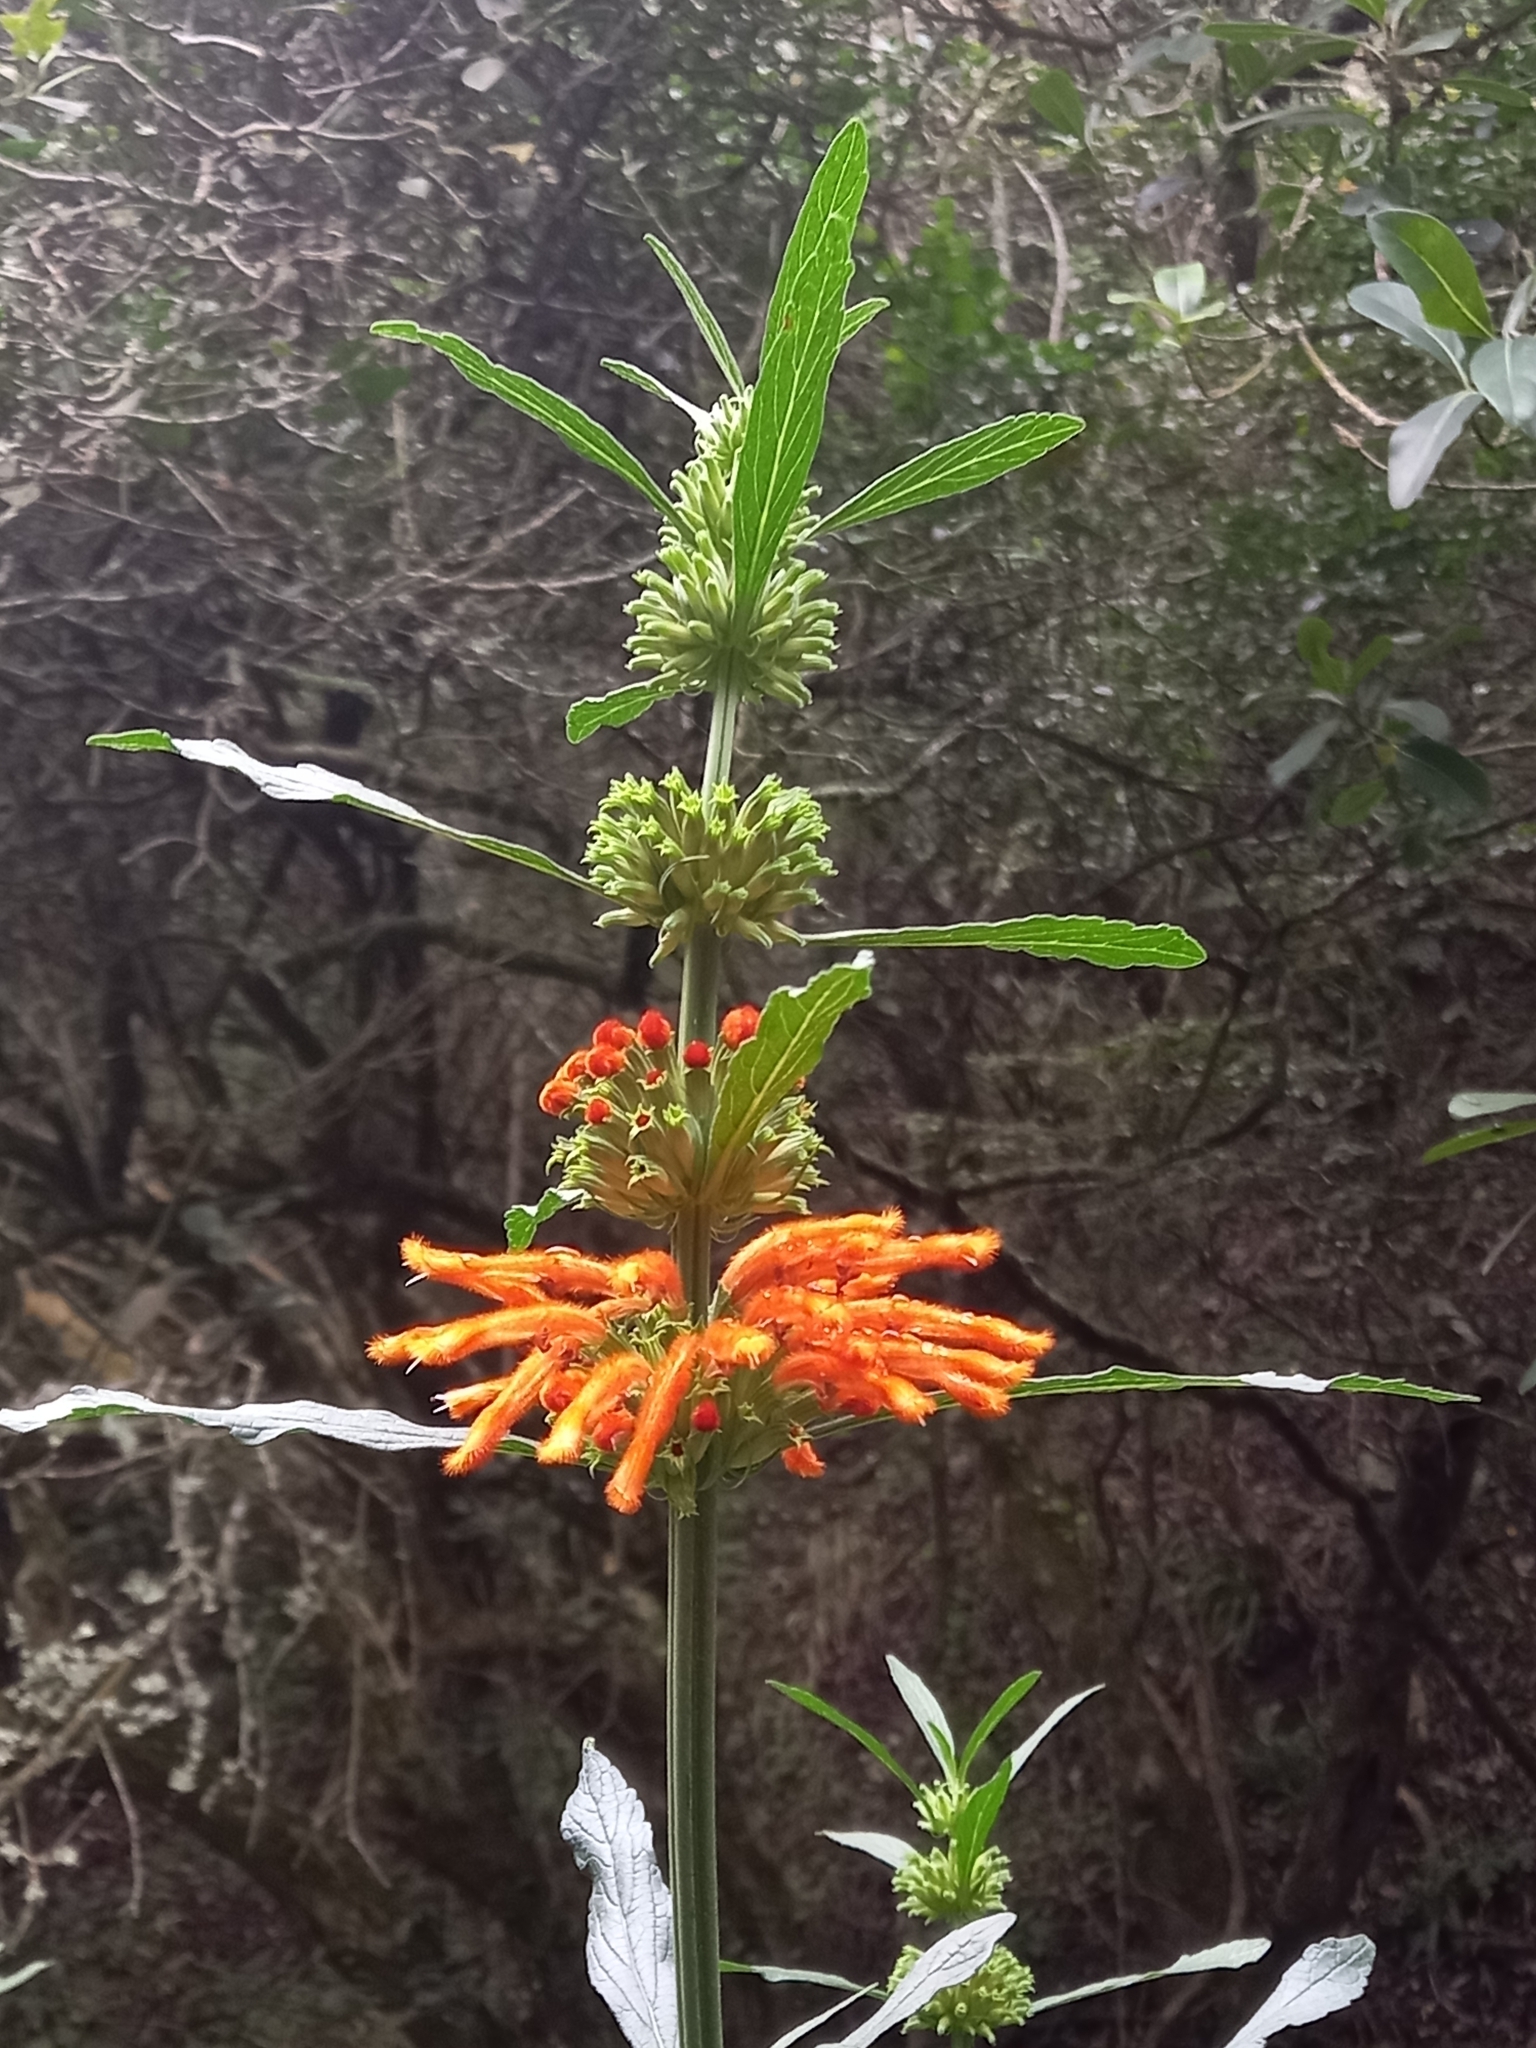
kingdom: Plantae
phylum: Tracheophyta
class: Magnoliopsida
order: Lamiales
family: Lamiaceae
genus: Leonotis
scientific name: Leonotis leonurus
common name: Lion's ear
